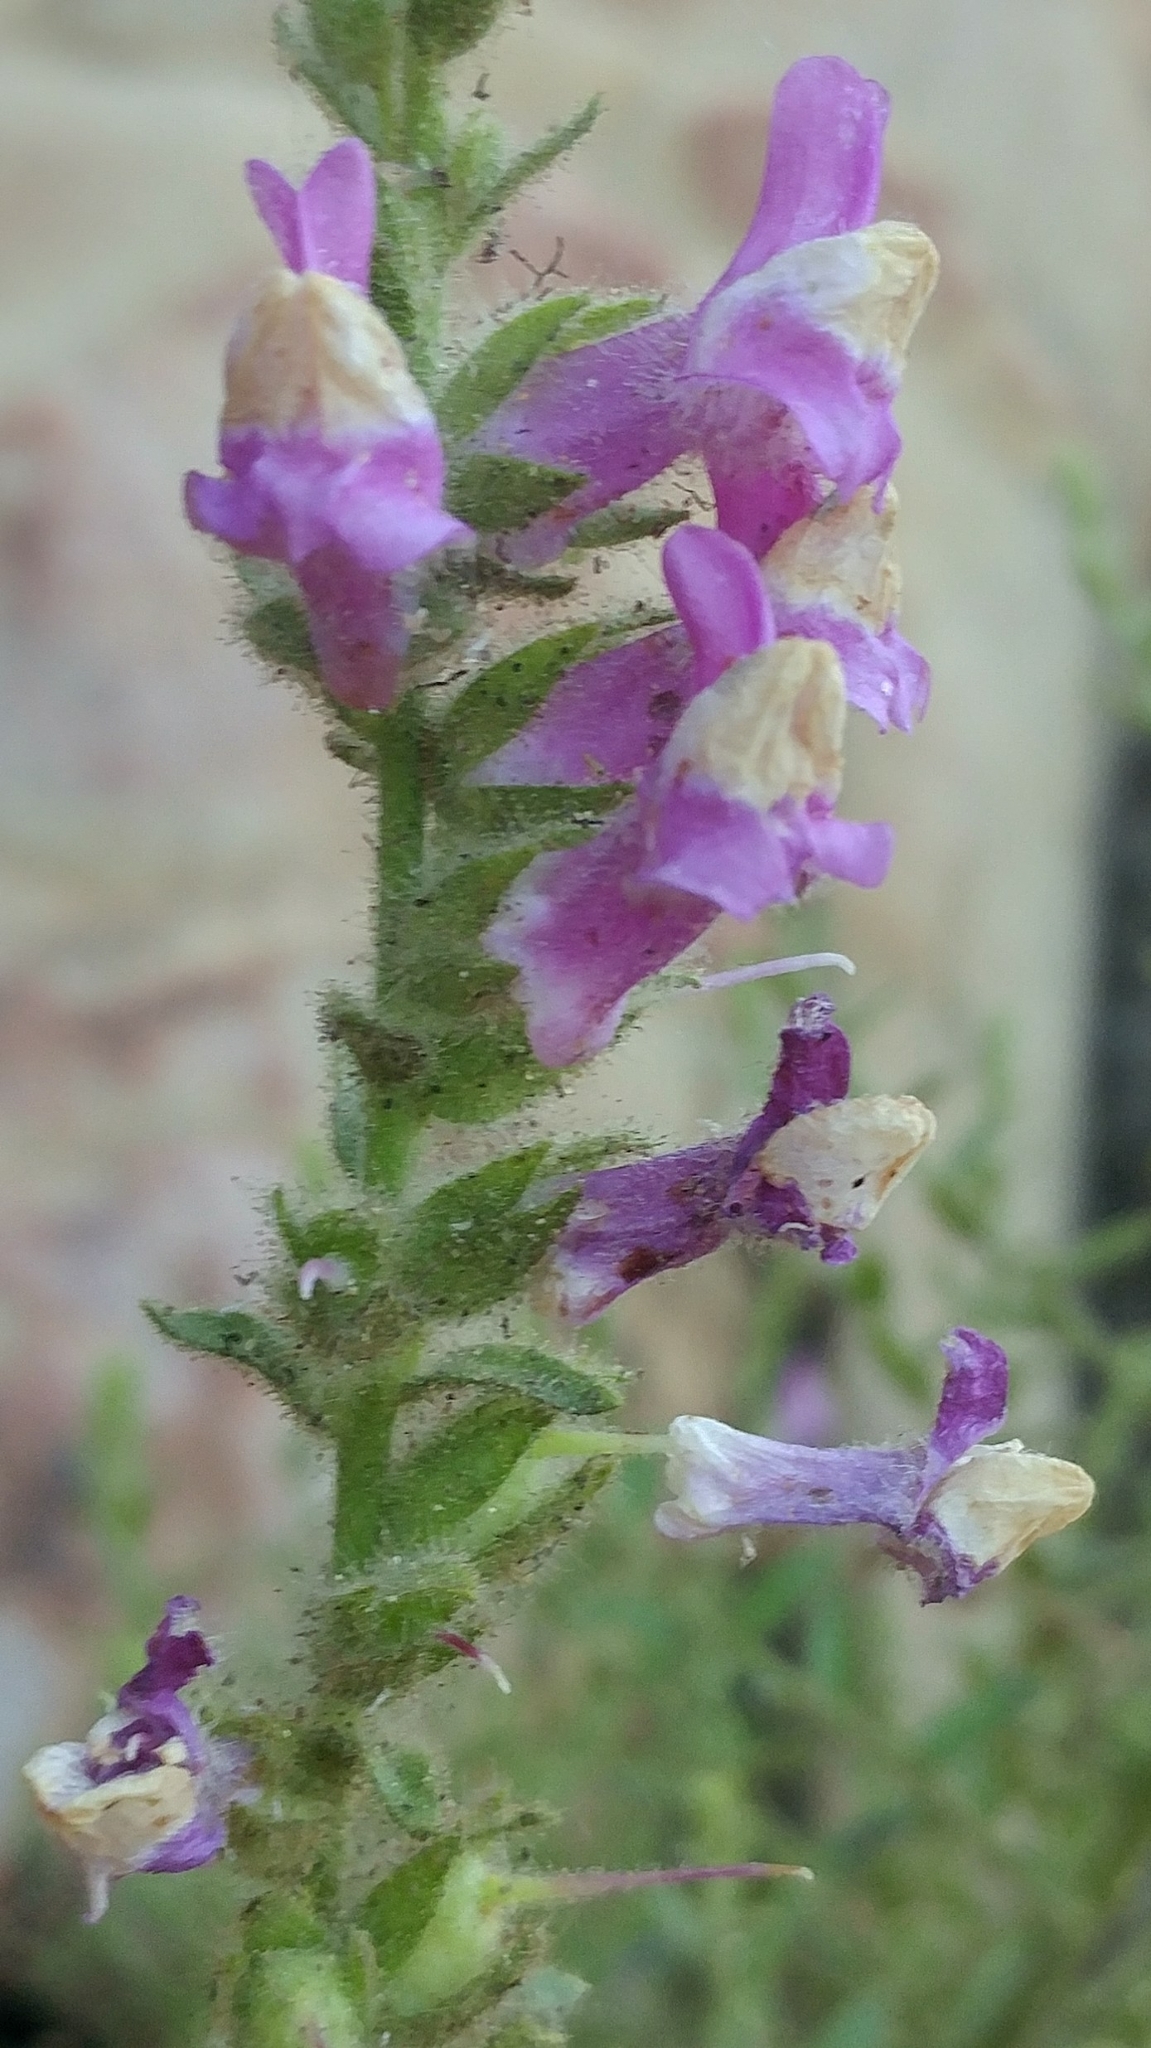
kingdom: Plantae
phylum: Tracheophyta
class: Magnoliopsida
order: Lamiales
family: Plantaginaceae
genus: Sairocarpus
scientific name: Sairocarpus multiflorus
